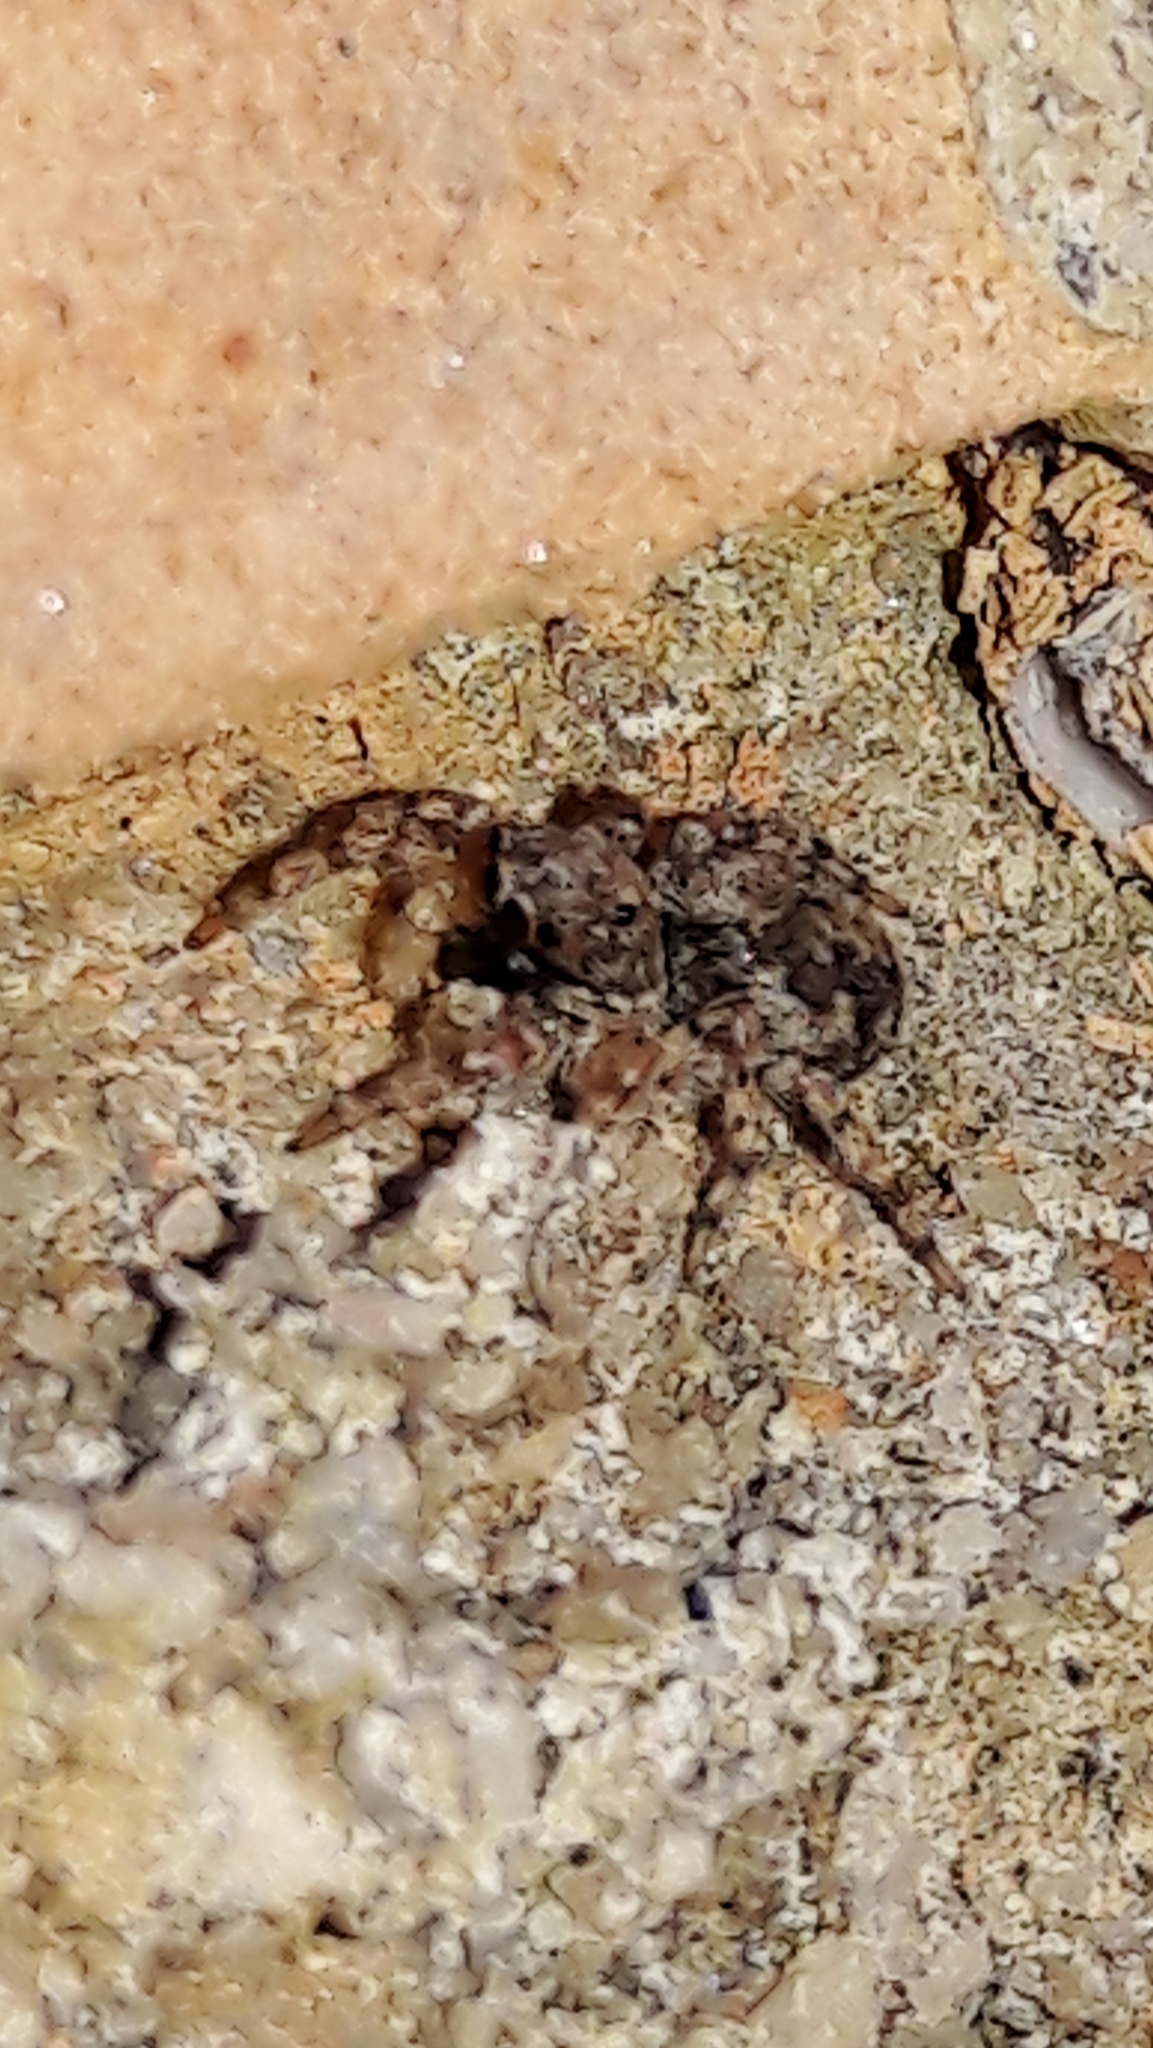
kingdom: Animalia
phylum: Arthropoda
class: Arachnida
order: Araneae
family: Salticidae
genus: Marma
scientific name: Marma nigritarsis
